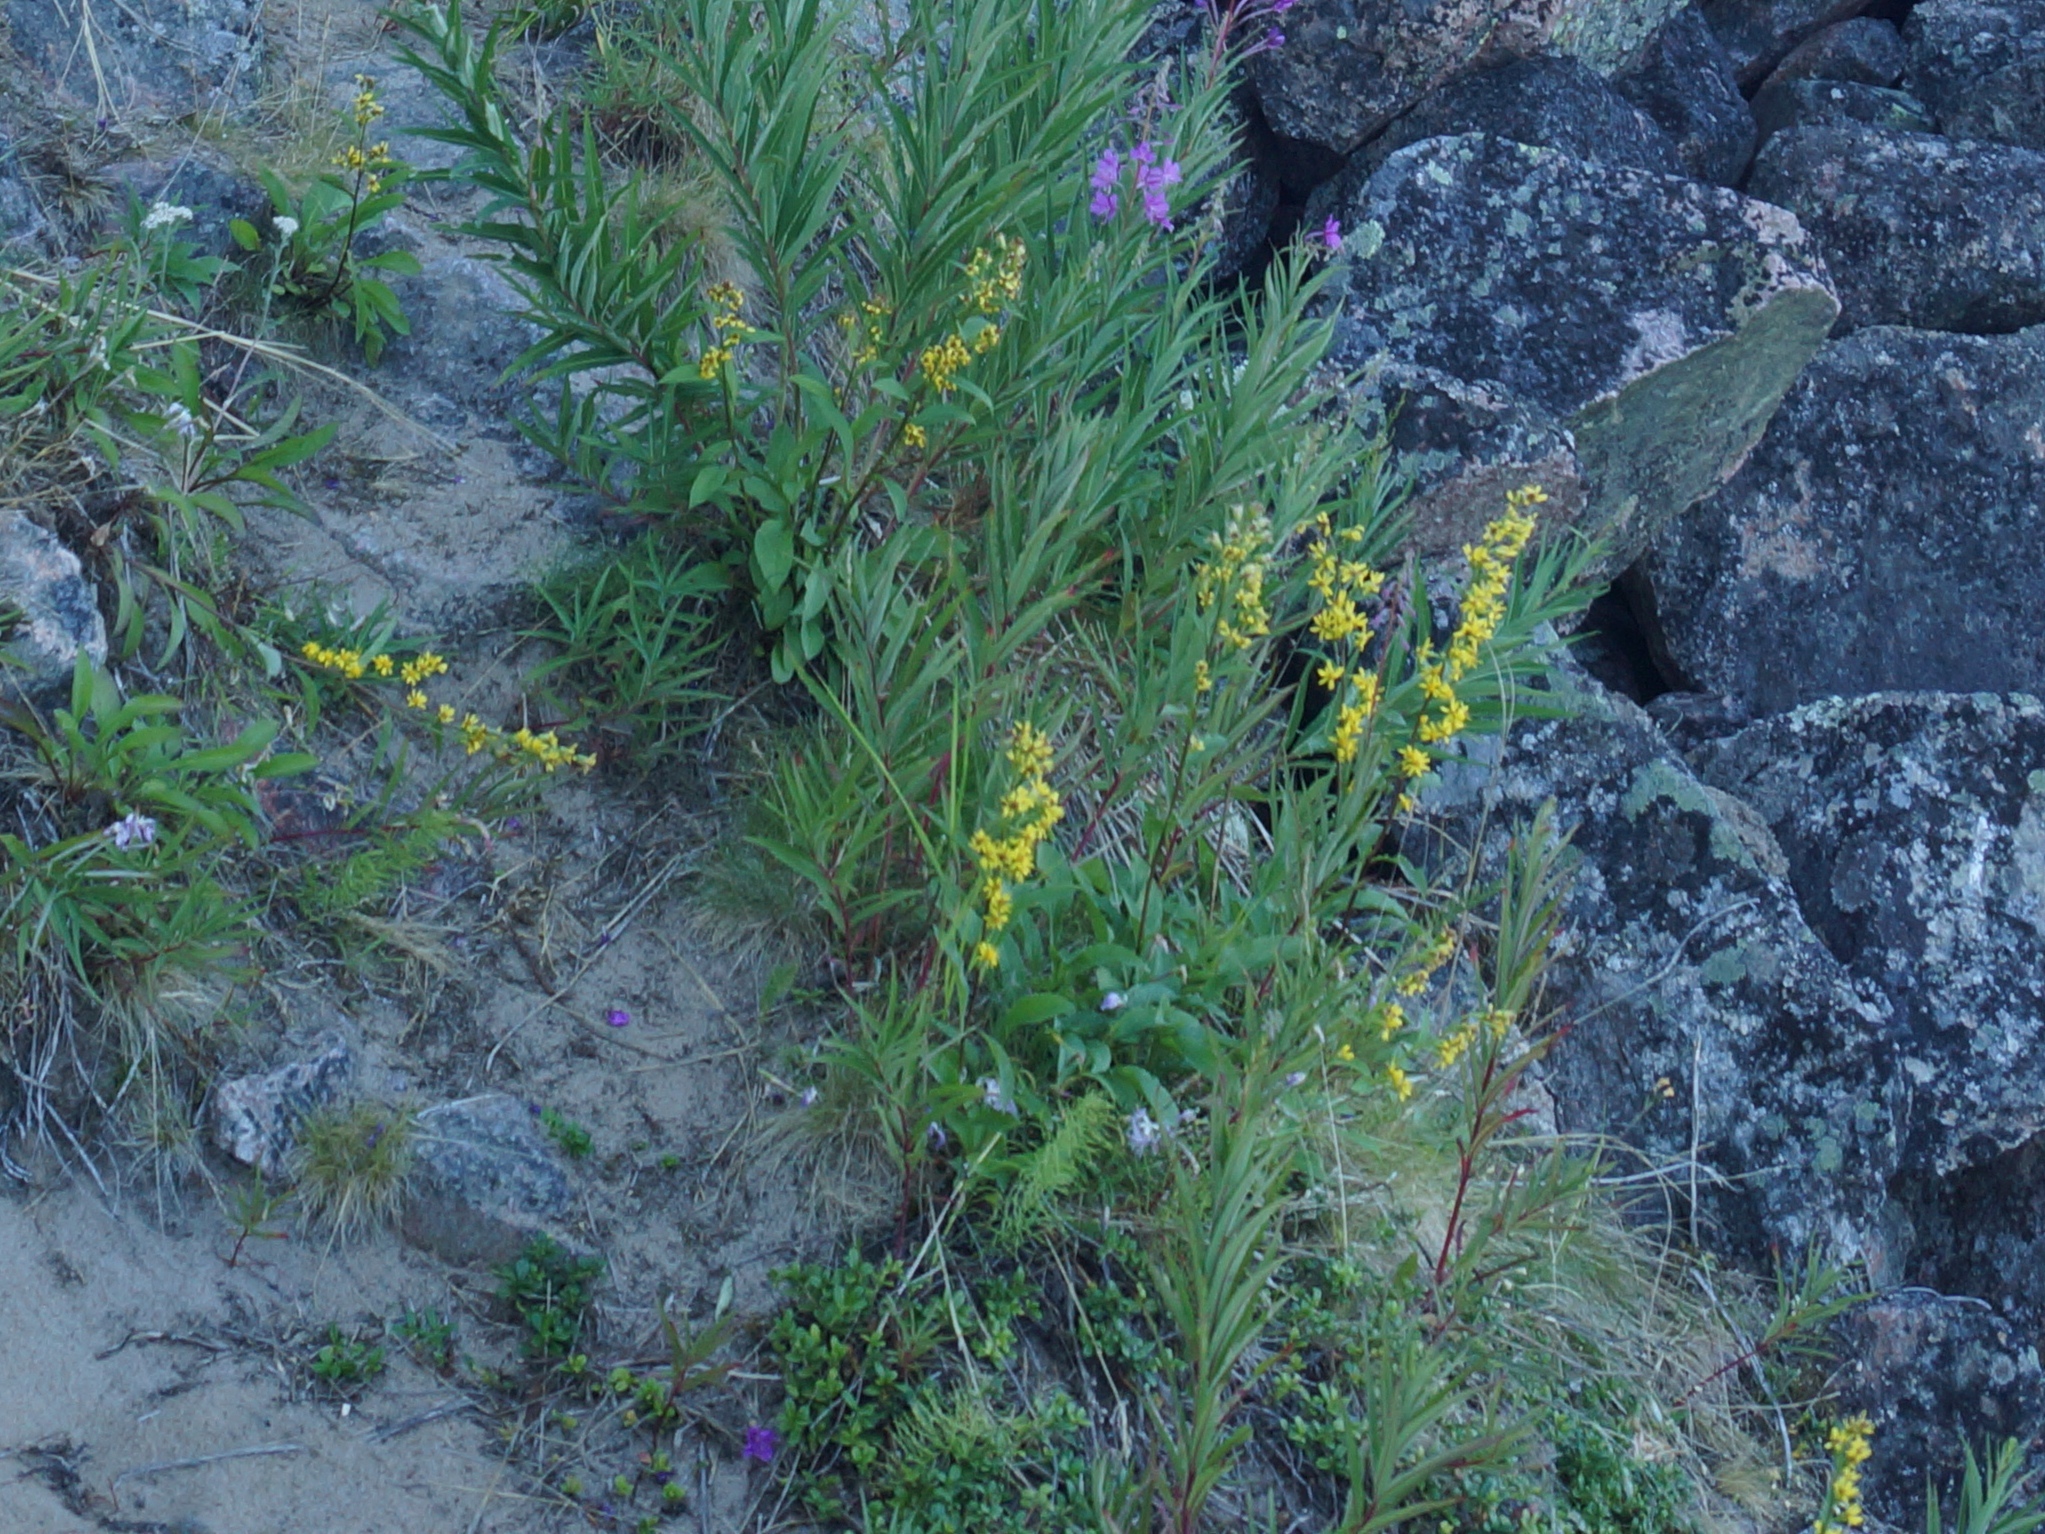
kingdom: Plantae
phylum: Tracheophyta
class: Magnoliopsida
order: Asterales
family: Asteraceae
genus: Solidago
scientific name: Solidago virgaurea
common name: Goldenrod
